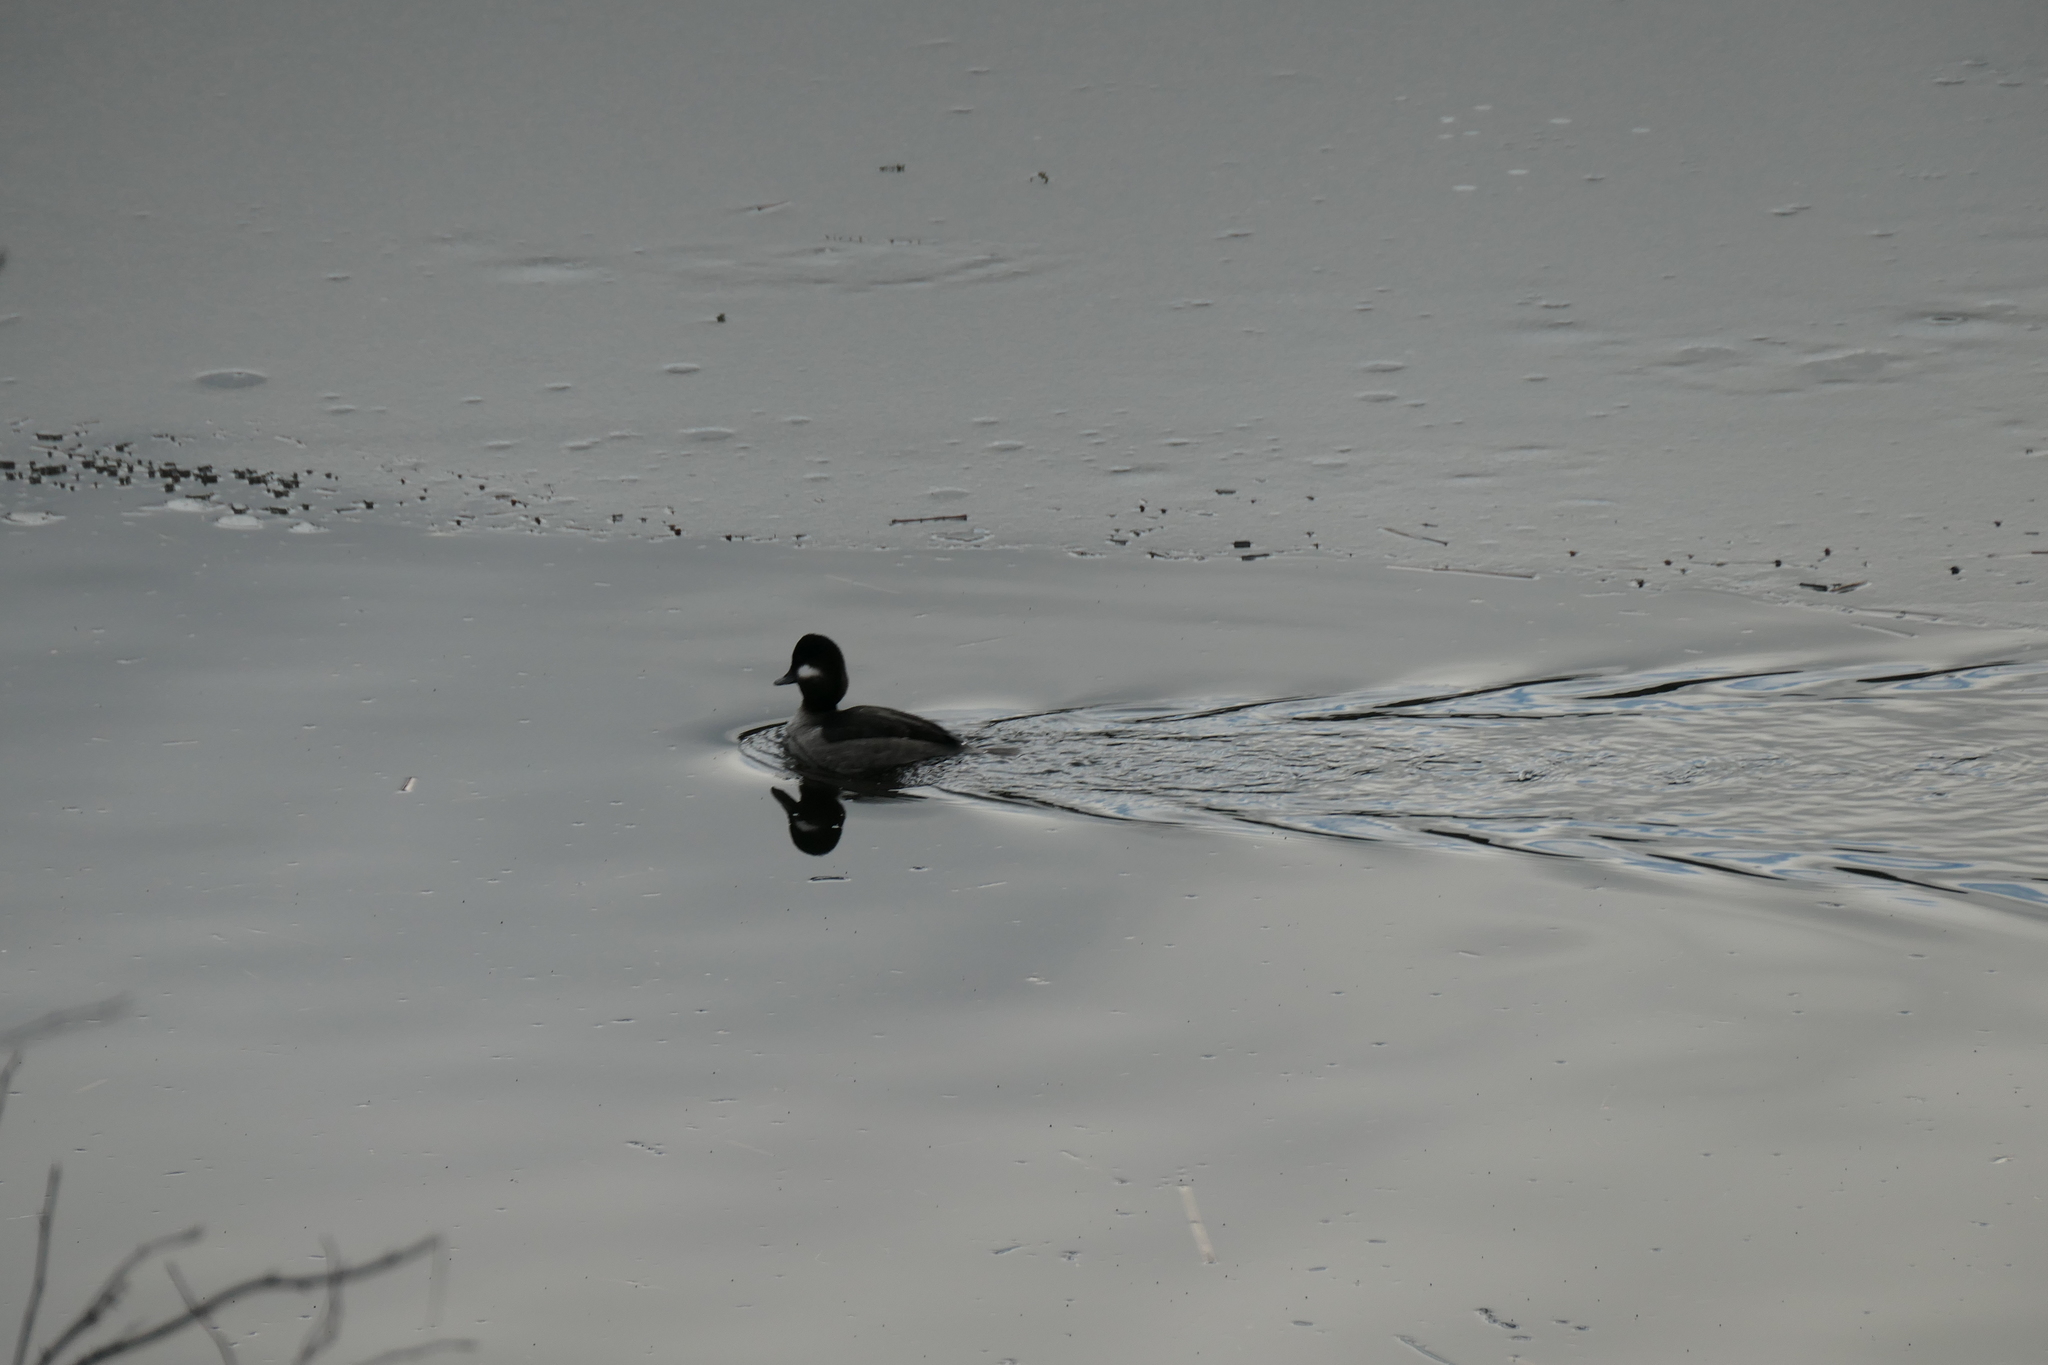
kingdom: Animalia
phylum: Chordata
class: Aves
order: Anseriformes
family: Anatidae
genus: Bucephala
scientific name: Bucephala albeola
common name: Bufflehead
